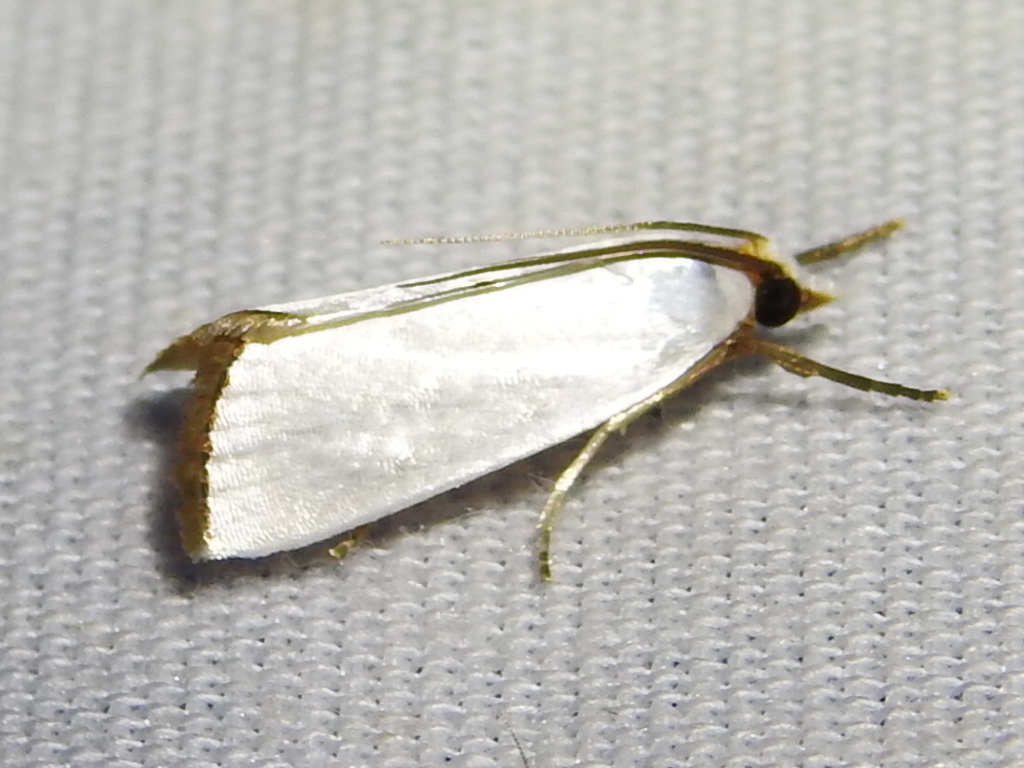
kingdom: Animalia
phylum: Arthropoda
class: Insecta
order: Lepidoptera
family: Crambidae
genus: Argyria
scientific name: Argyria nivalis
